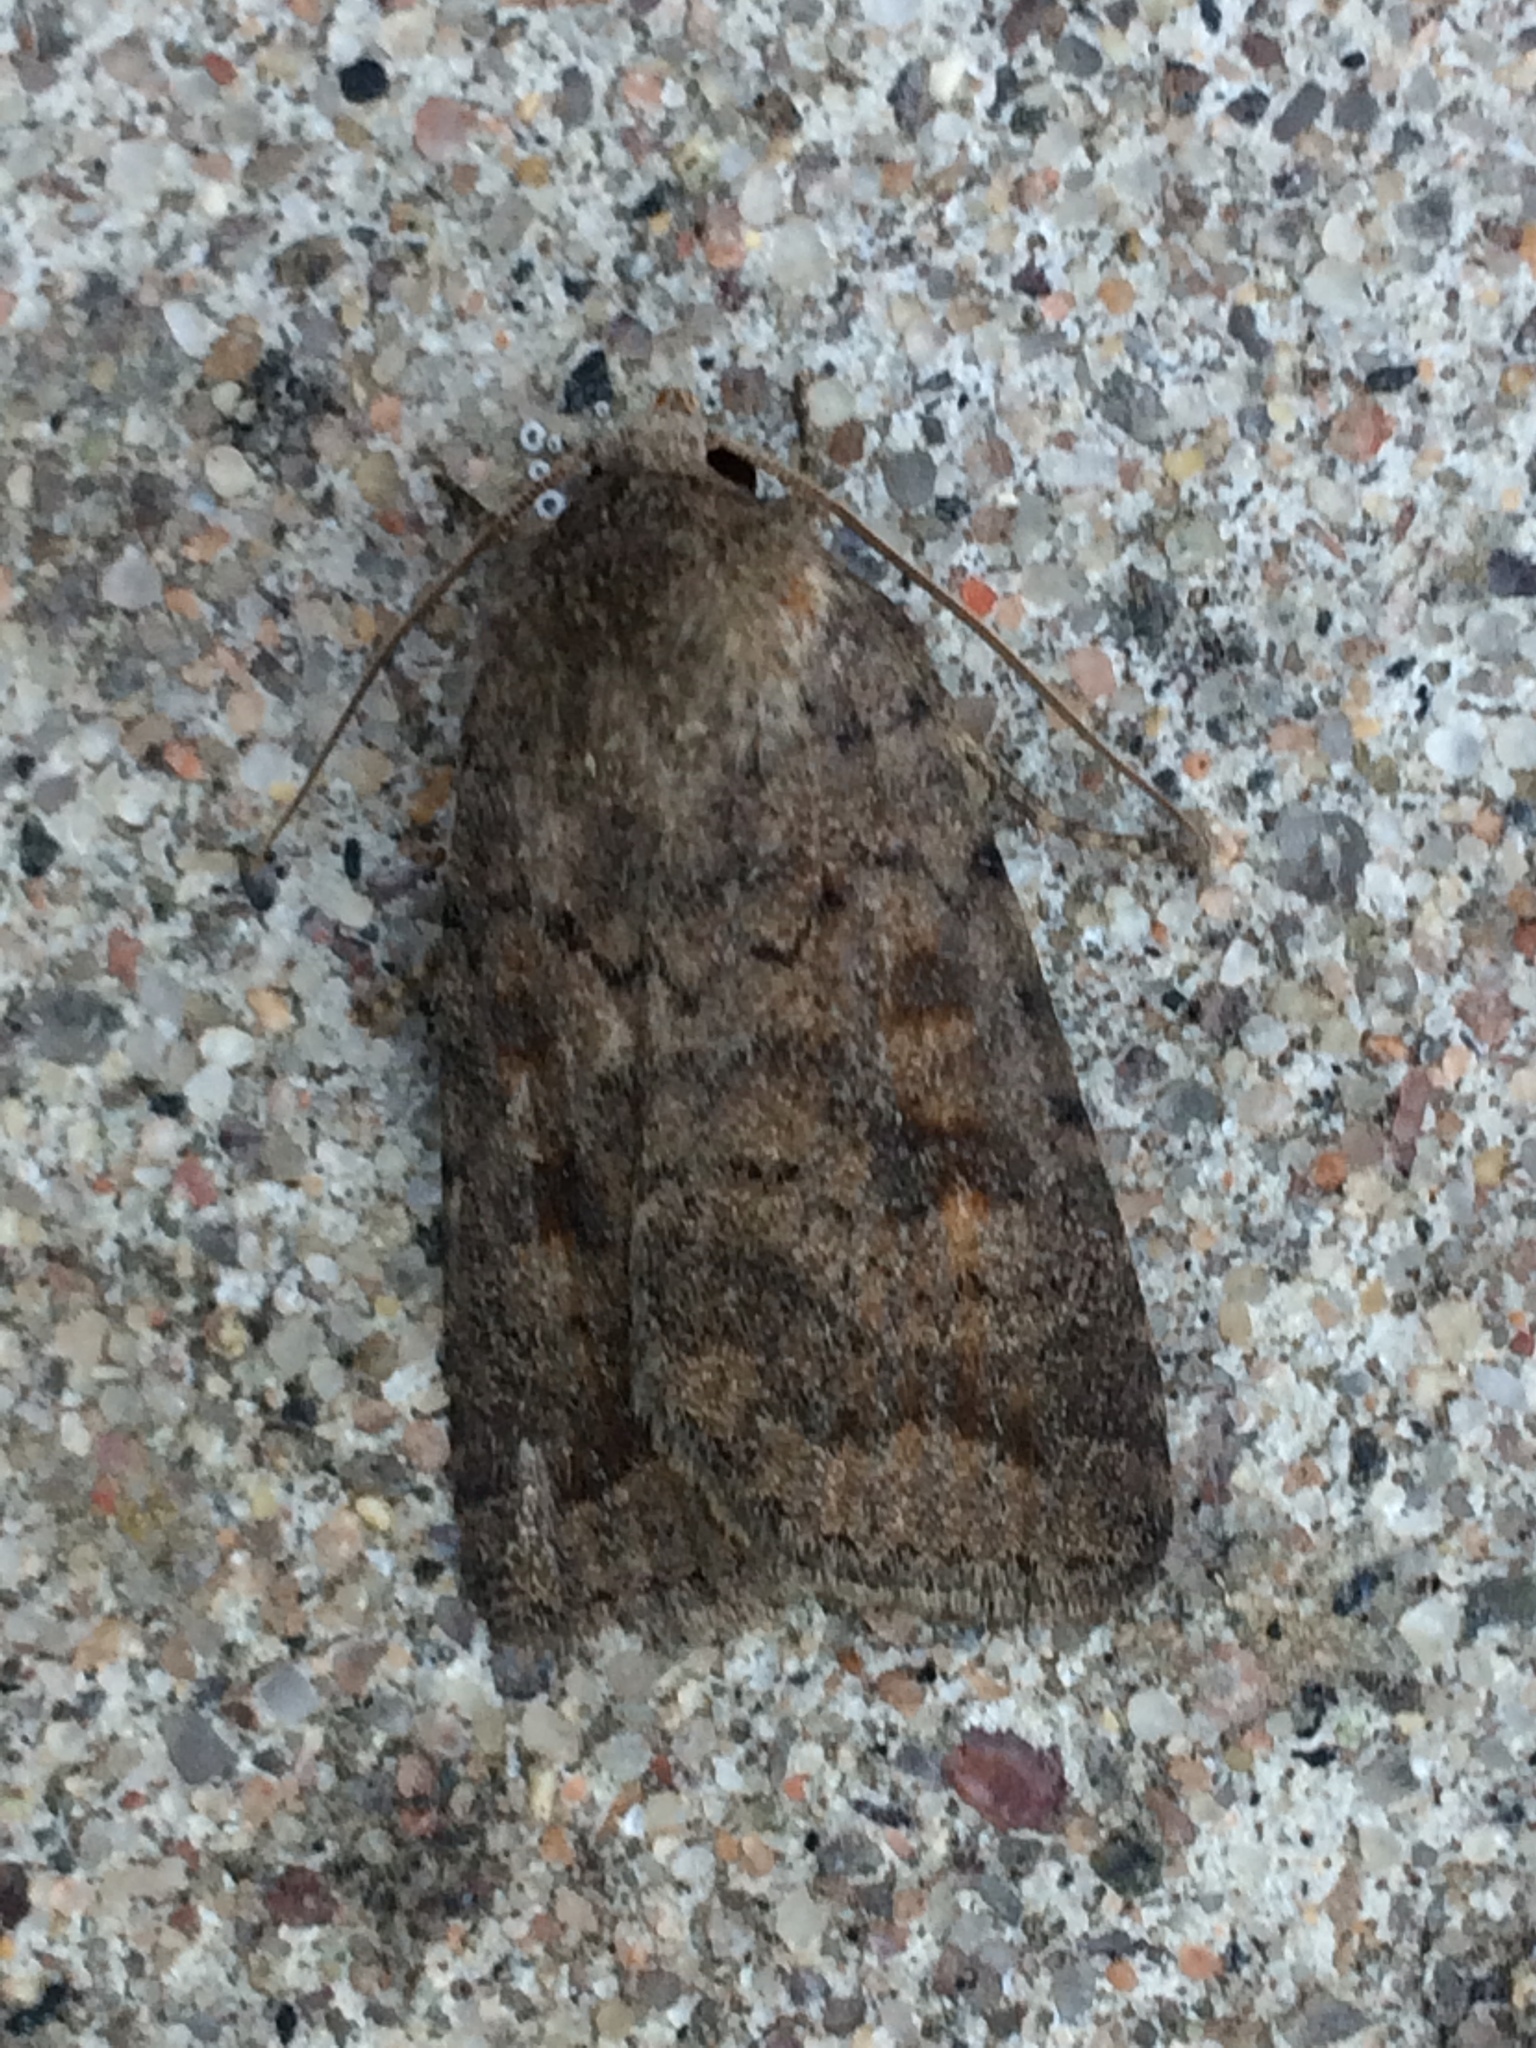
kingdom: Animalia
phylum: Arthropoda
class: Insecta
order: Lepidoptera
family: Noctuidae
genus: Caradrina
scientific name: Caradrina morpheus
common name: Mottled rustic
